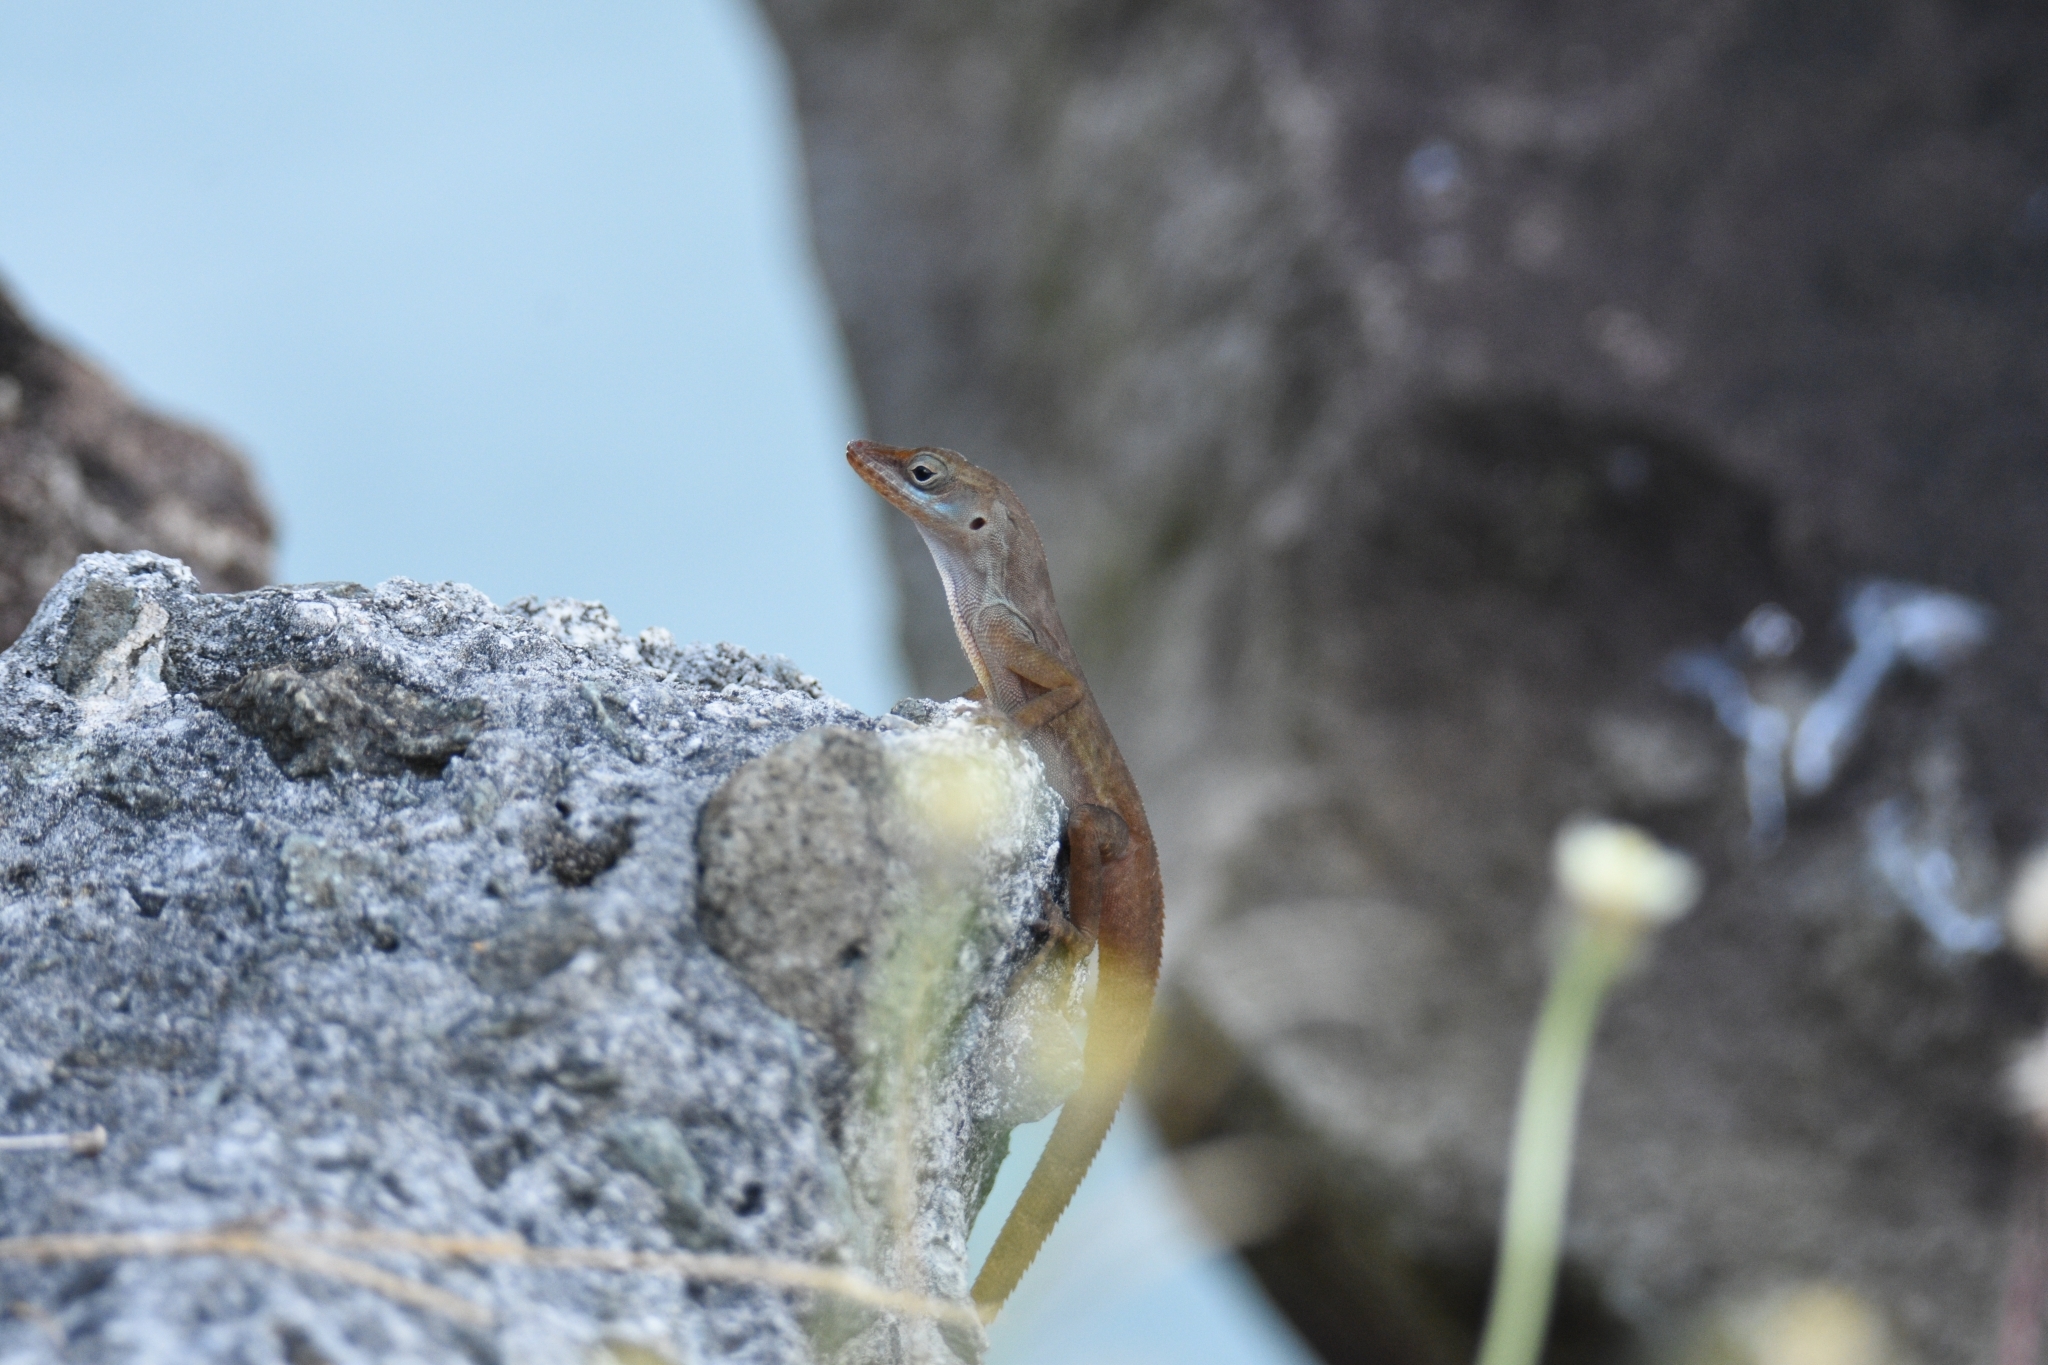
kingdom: Animalia
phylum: Chordata
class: Squamata
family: Dactyloidae
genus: Anolis
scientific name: Anolis luciae
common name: St. lucia anole
